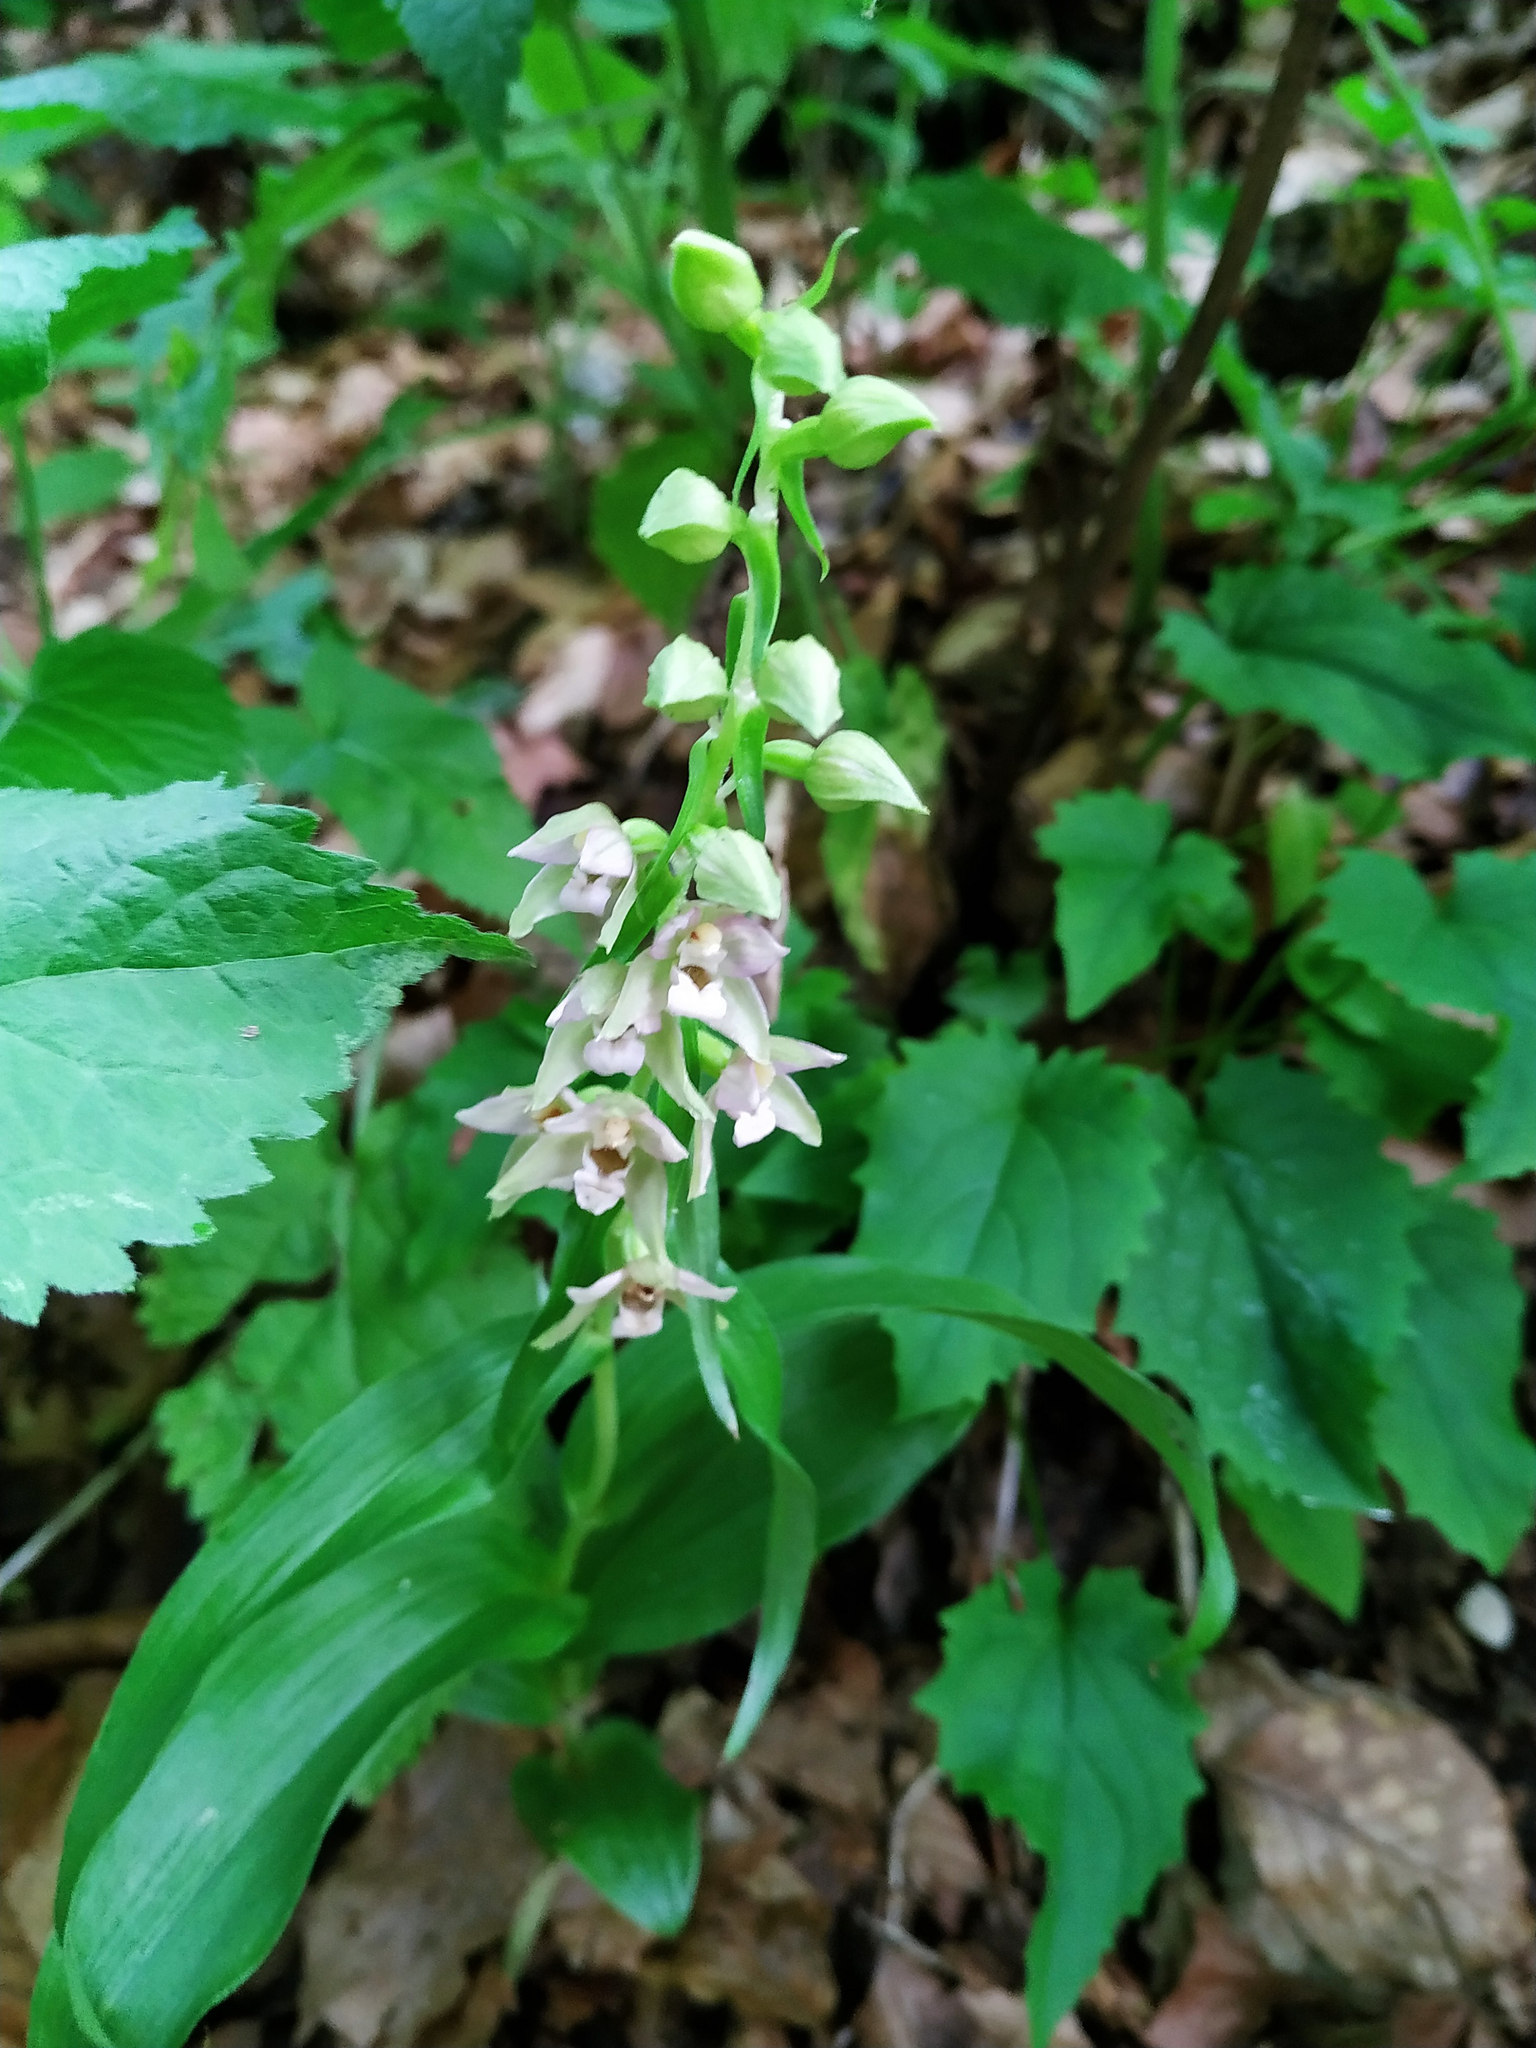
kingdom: Plantae
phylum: Tracheophyta
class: Liliopsida
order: Asparagales
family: Orchidaceae
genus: Epipactis
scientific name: Epipactis helleborine
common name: Broad-leaved helleborine
